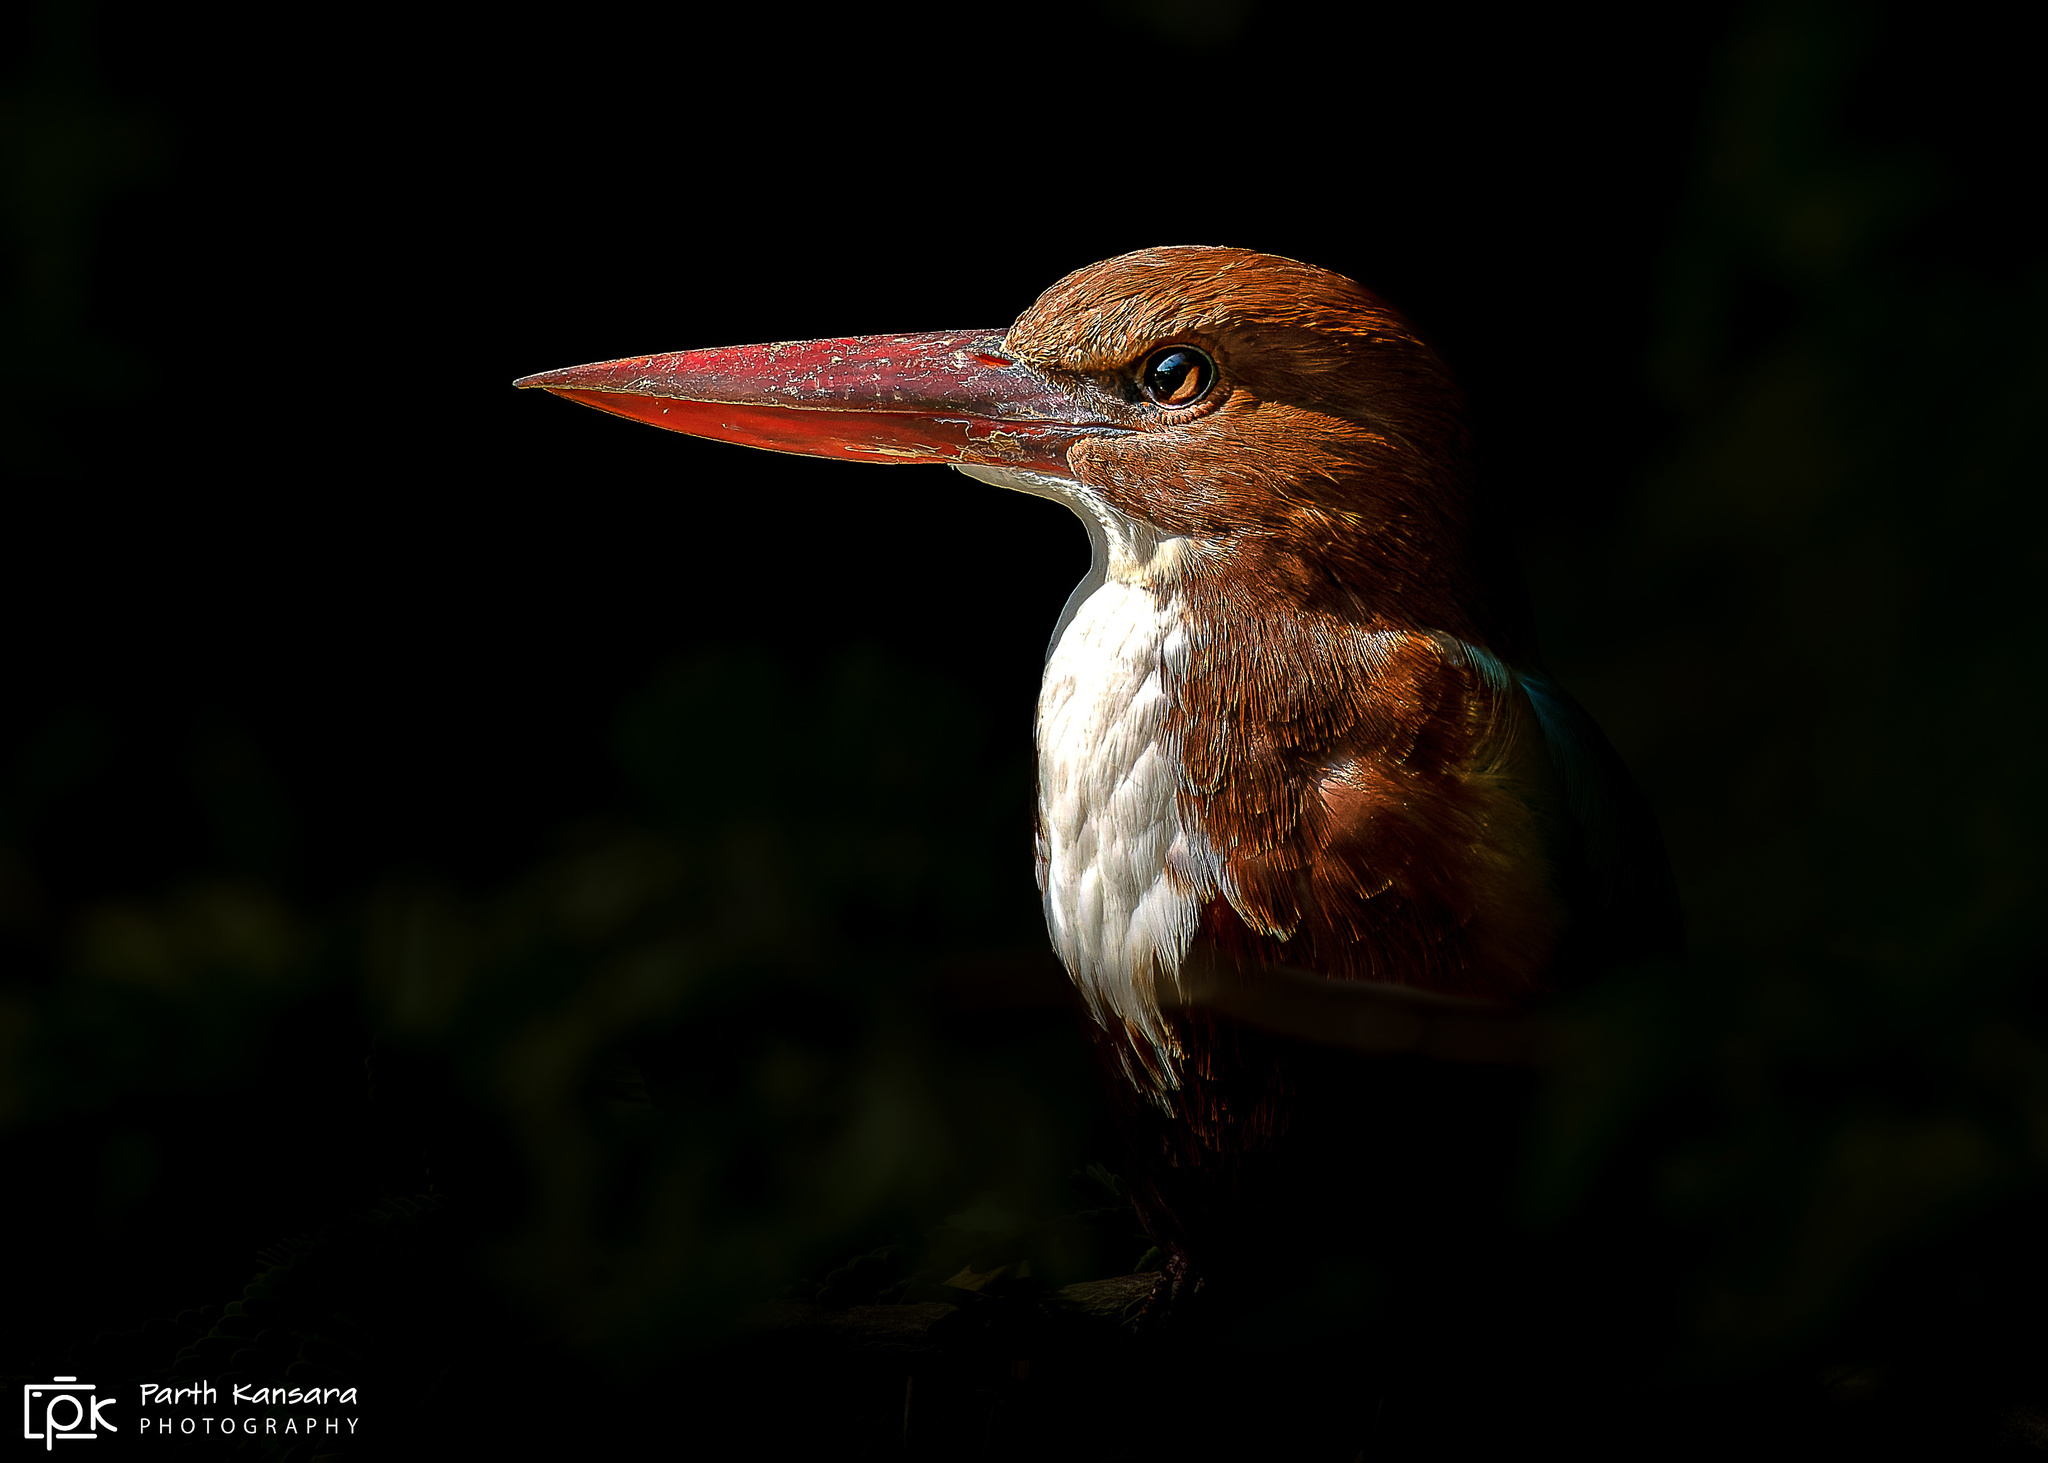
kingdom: Animalia
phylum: Chordata
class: Aves
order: Coraciiformes
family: Alcedinidae
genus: Halcyon
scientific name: Halcyon smyrnensis
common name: White-throated kingfisher
